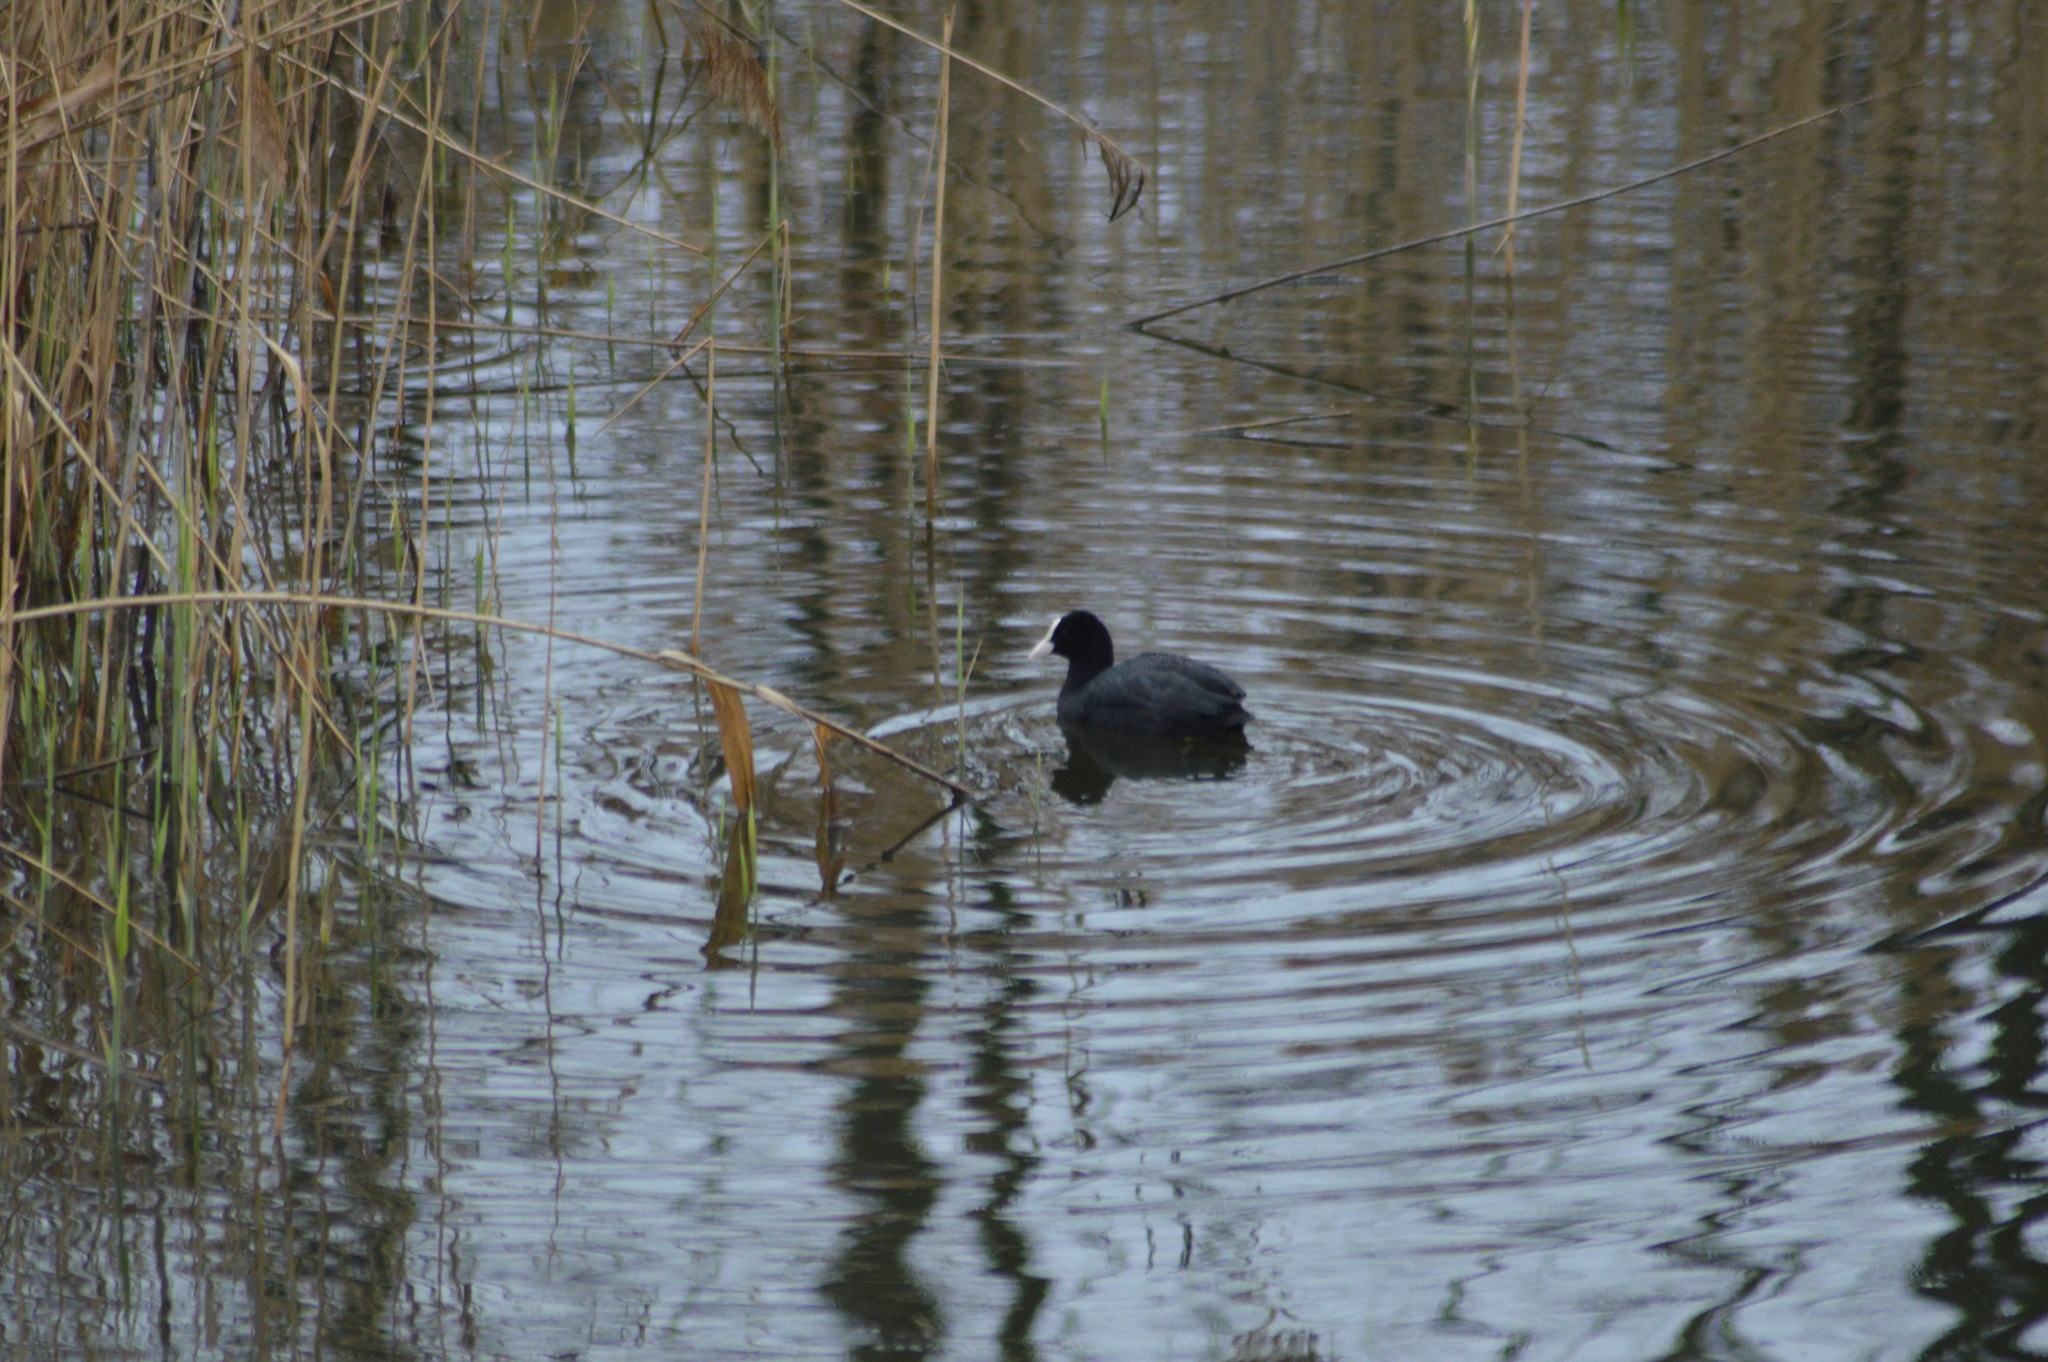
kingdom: Animalia
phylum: Chordata
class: Aves
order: Gruiformes
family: Rallidae
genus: Fulica
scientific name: Fulica atra
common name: Eurasian coot
